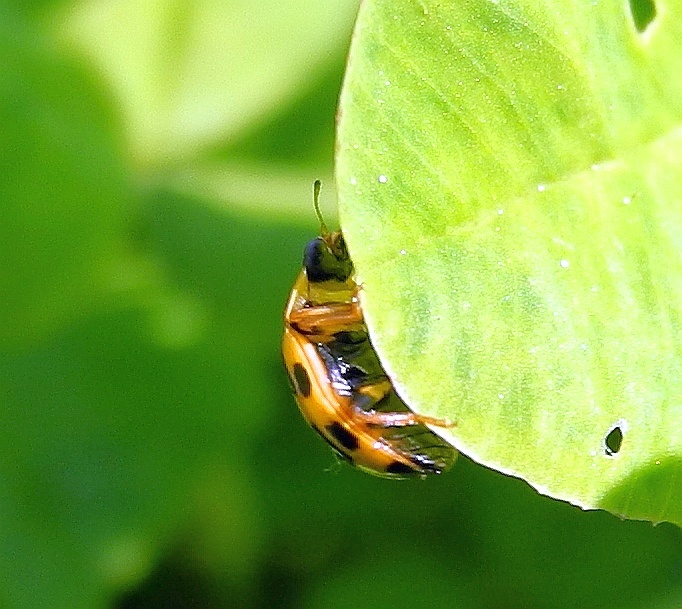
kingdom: Animalia
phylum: Arthropoda
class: Insecta
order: Coleoptera
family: Coccinellidae
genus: Propylaea
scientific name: Propylaea quatuordecimpunctata
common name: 14-spotted ladybird beetle
